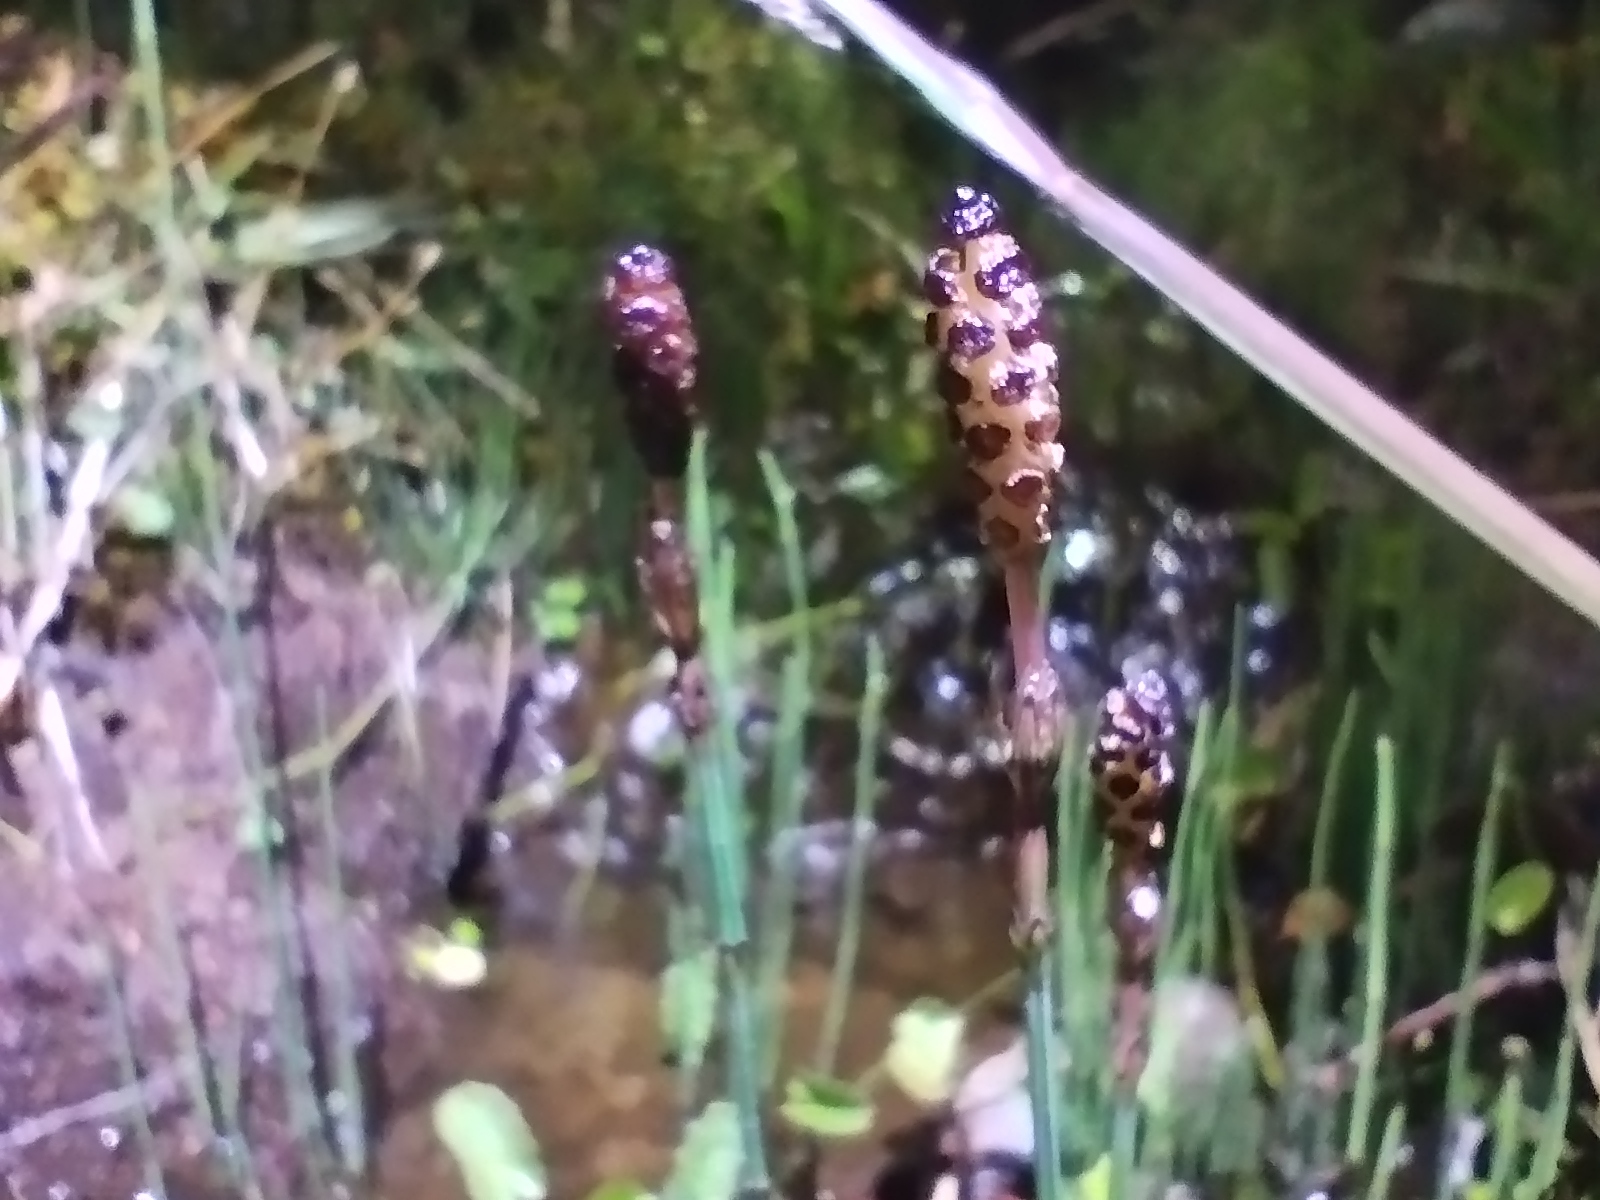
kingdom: Plantae
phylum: Tracheophyta
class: Polypodiopsida
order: Equisetales
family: Equisetaceae
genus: Equisetum
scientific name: Equisetum bogotense
